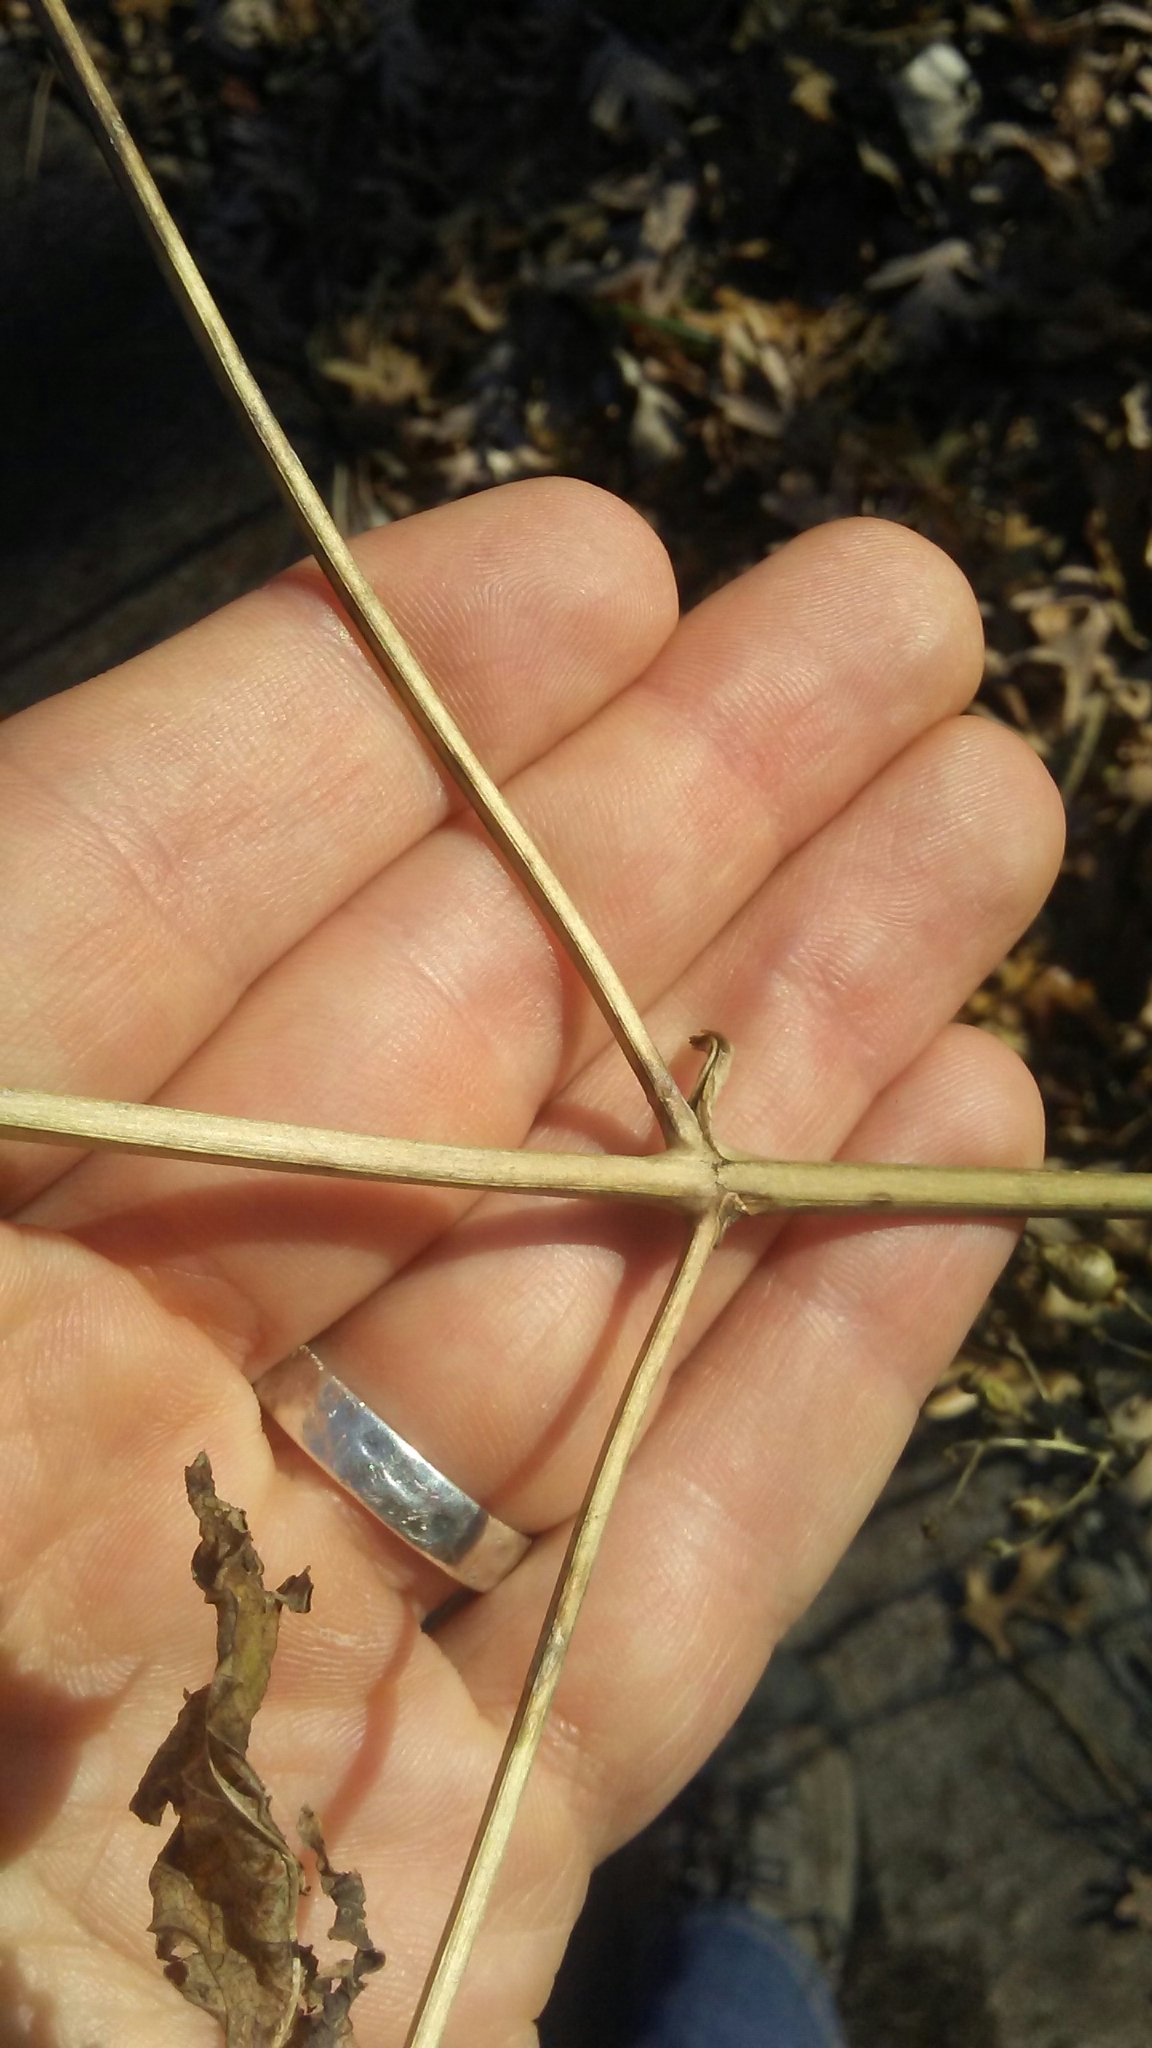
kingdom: Plantae
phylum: Tracheophyta
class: Magnoliopsida
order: Lamiales
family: Scrophulariaceae
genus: Scrophularia
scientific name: Scrophularia marilandica
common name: Eastern figwort
